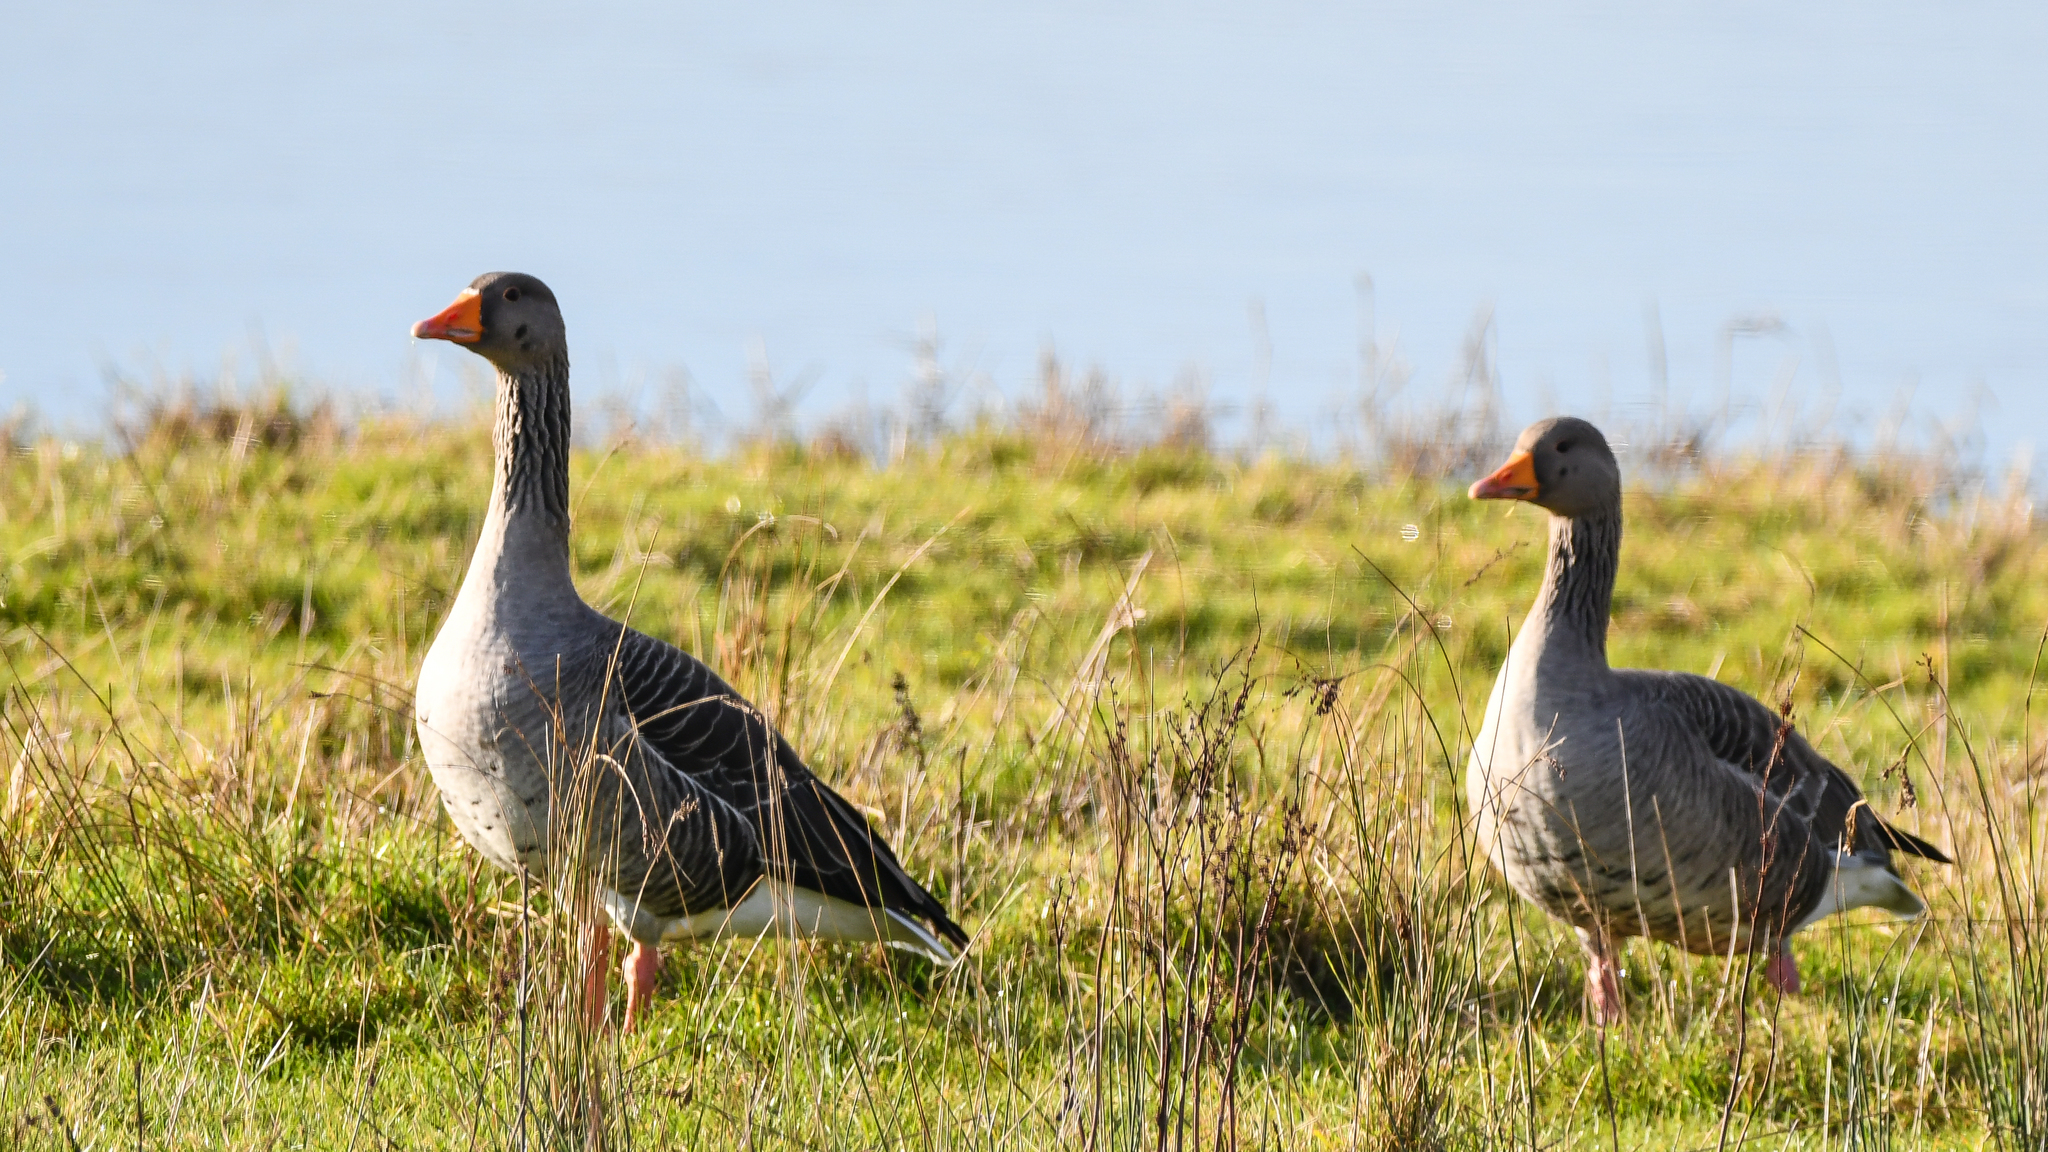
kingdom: Animalia
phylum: Chordata
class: Aves
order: Anseriformes
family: Anatidae
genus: Anser
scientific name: Anser anser
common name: Greylag goose
